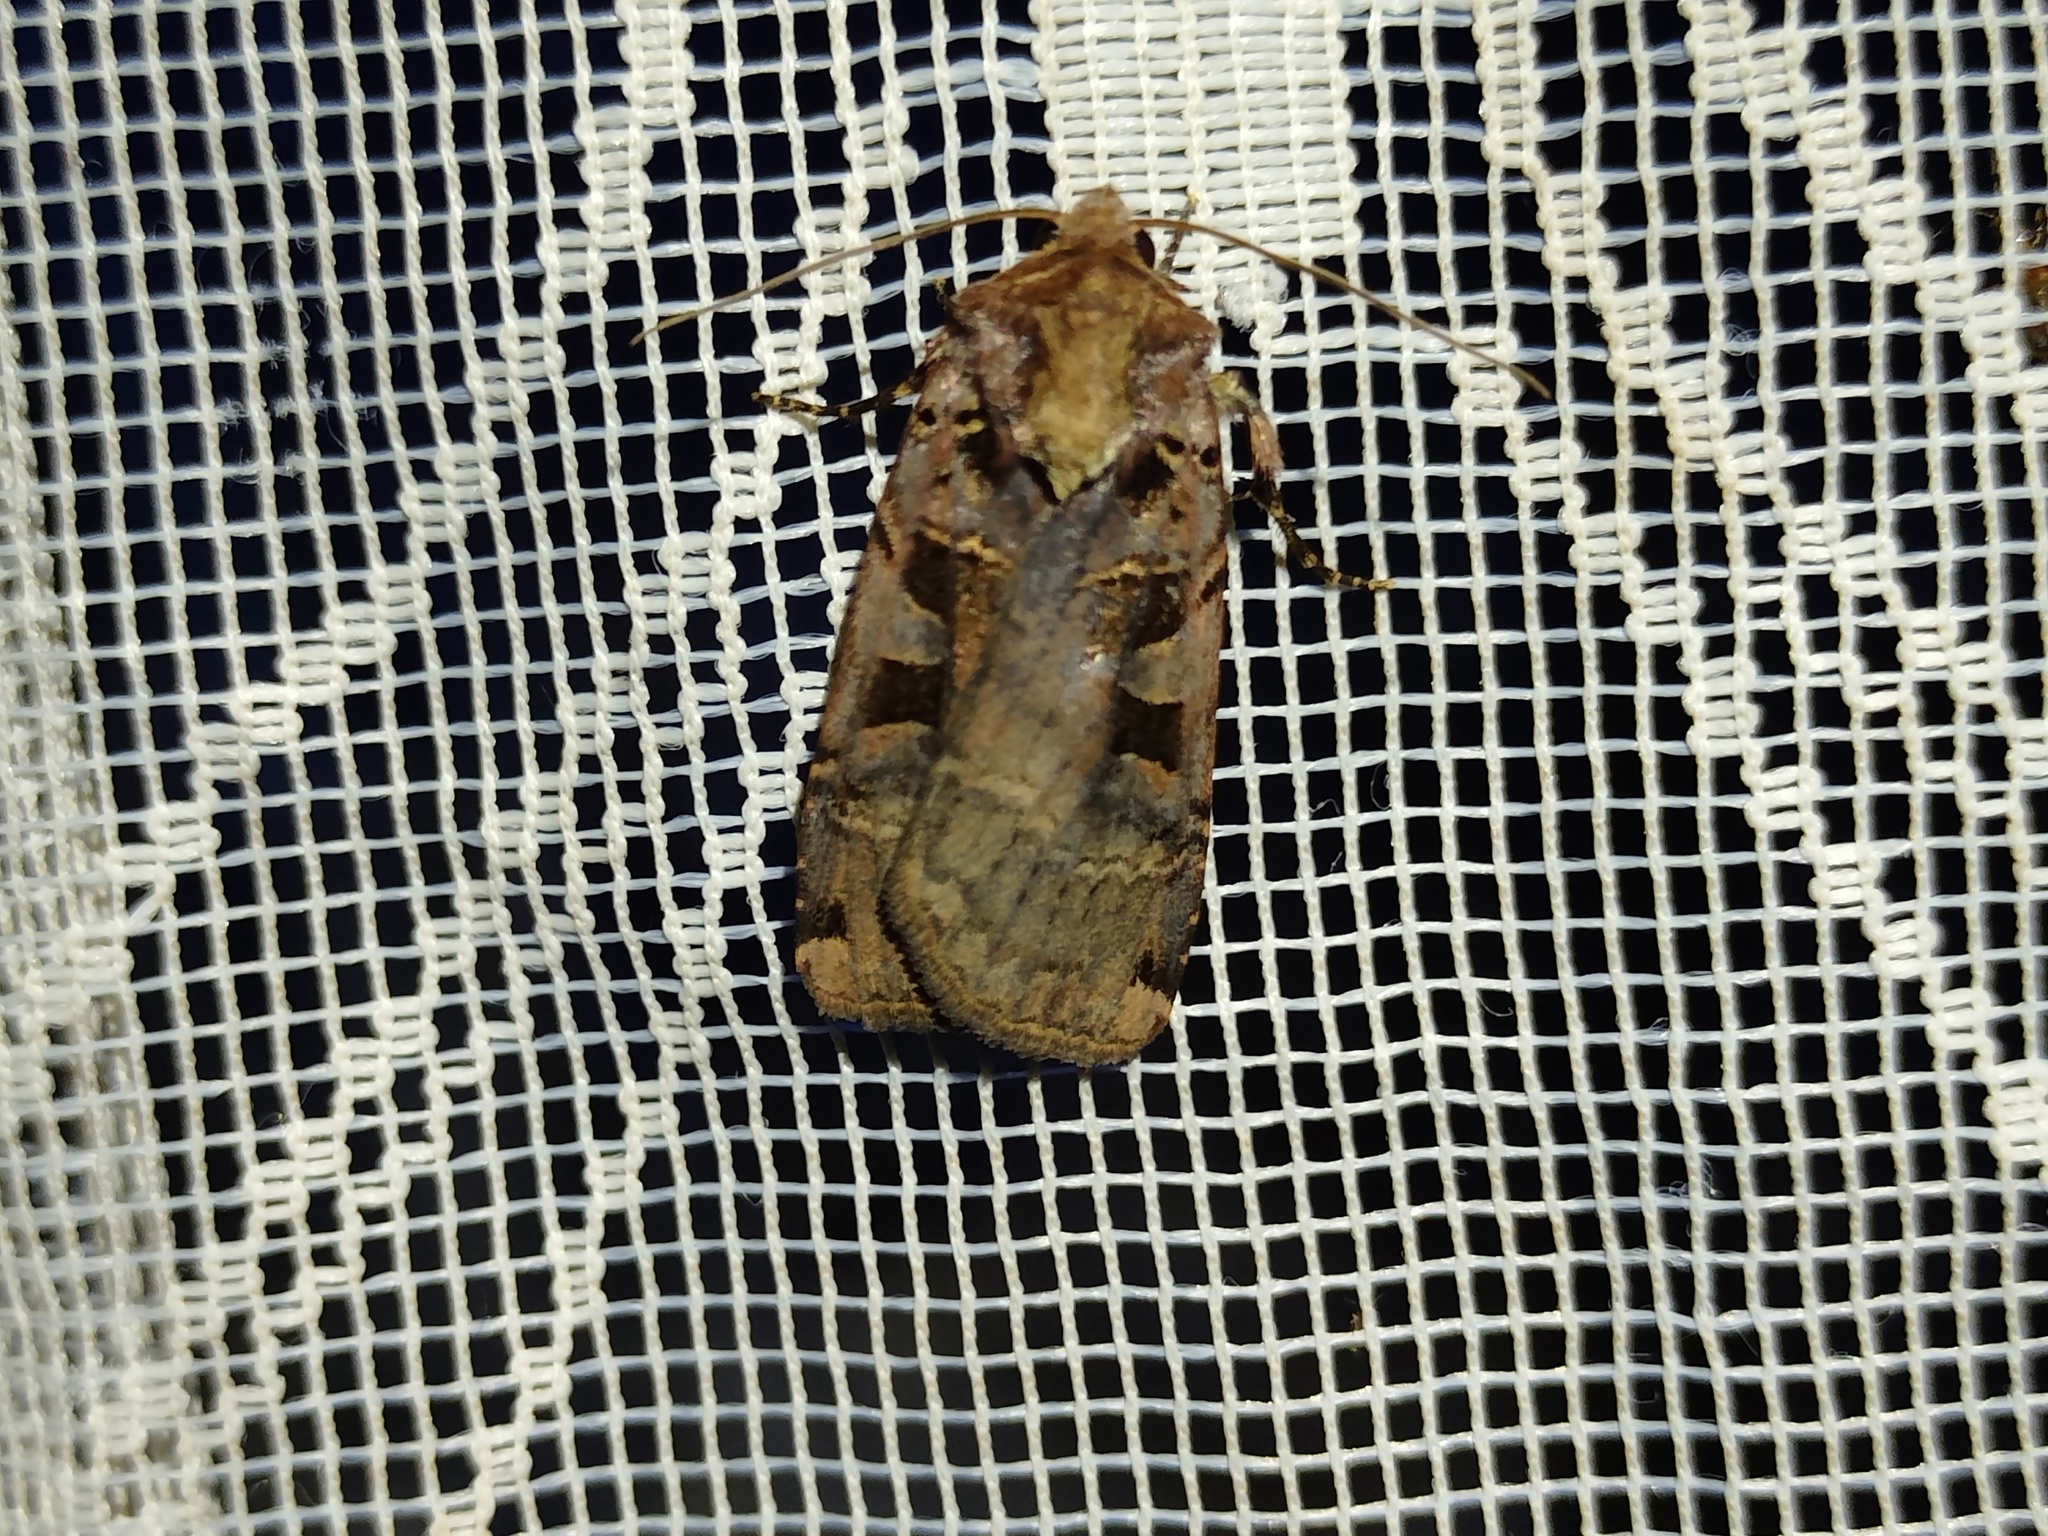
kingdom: Animalia
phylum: Arthropoda
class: Insecta
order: Lepidoptera
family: Noctuidae
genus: Xestia
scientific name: Xestia ditrapezium
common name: Triple-spotted clay
